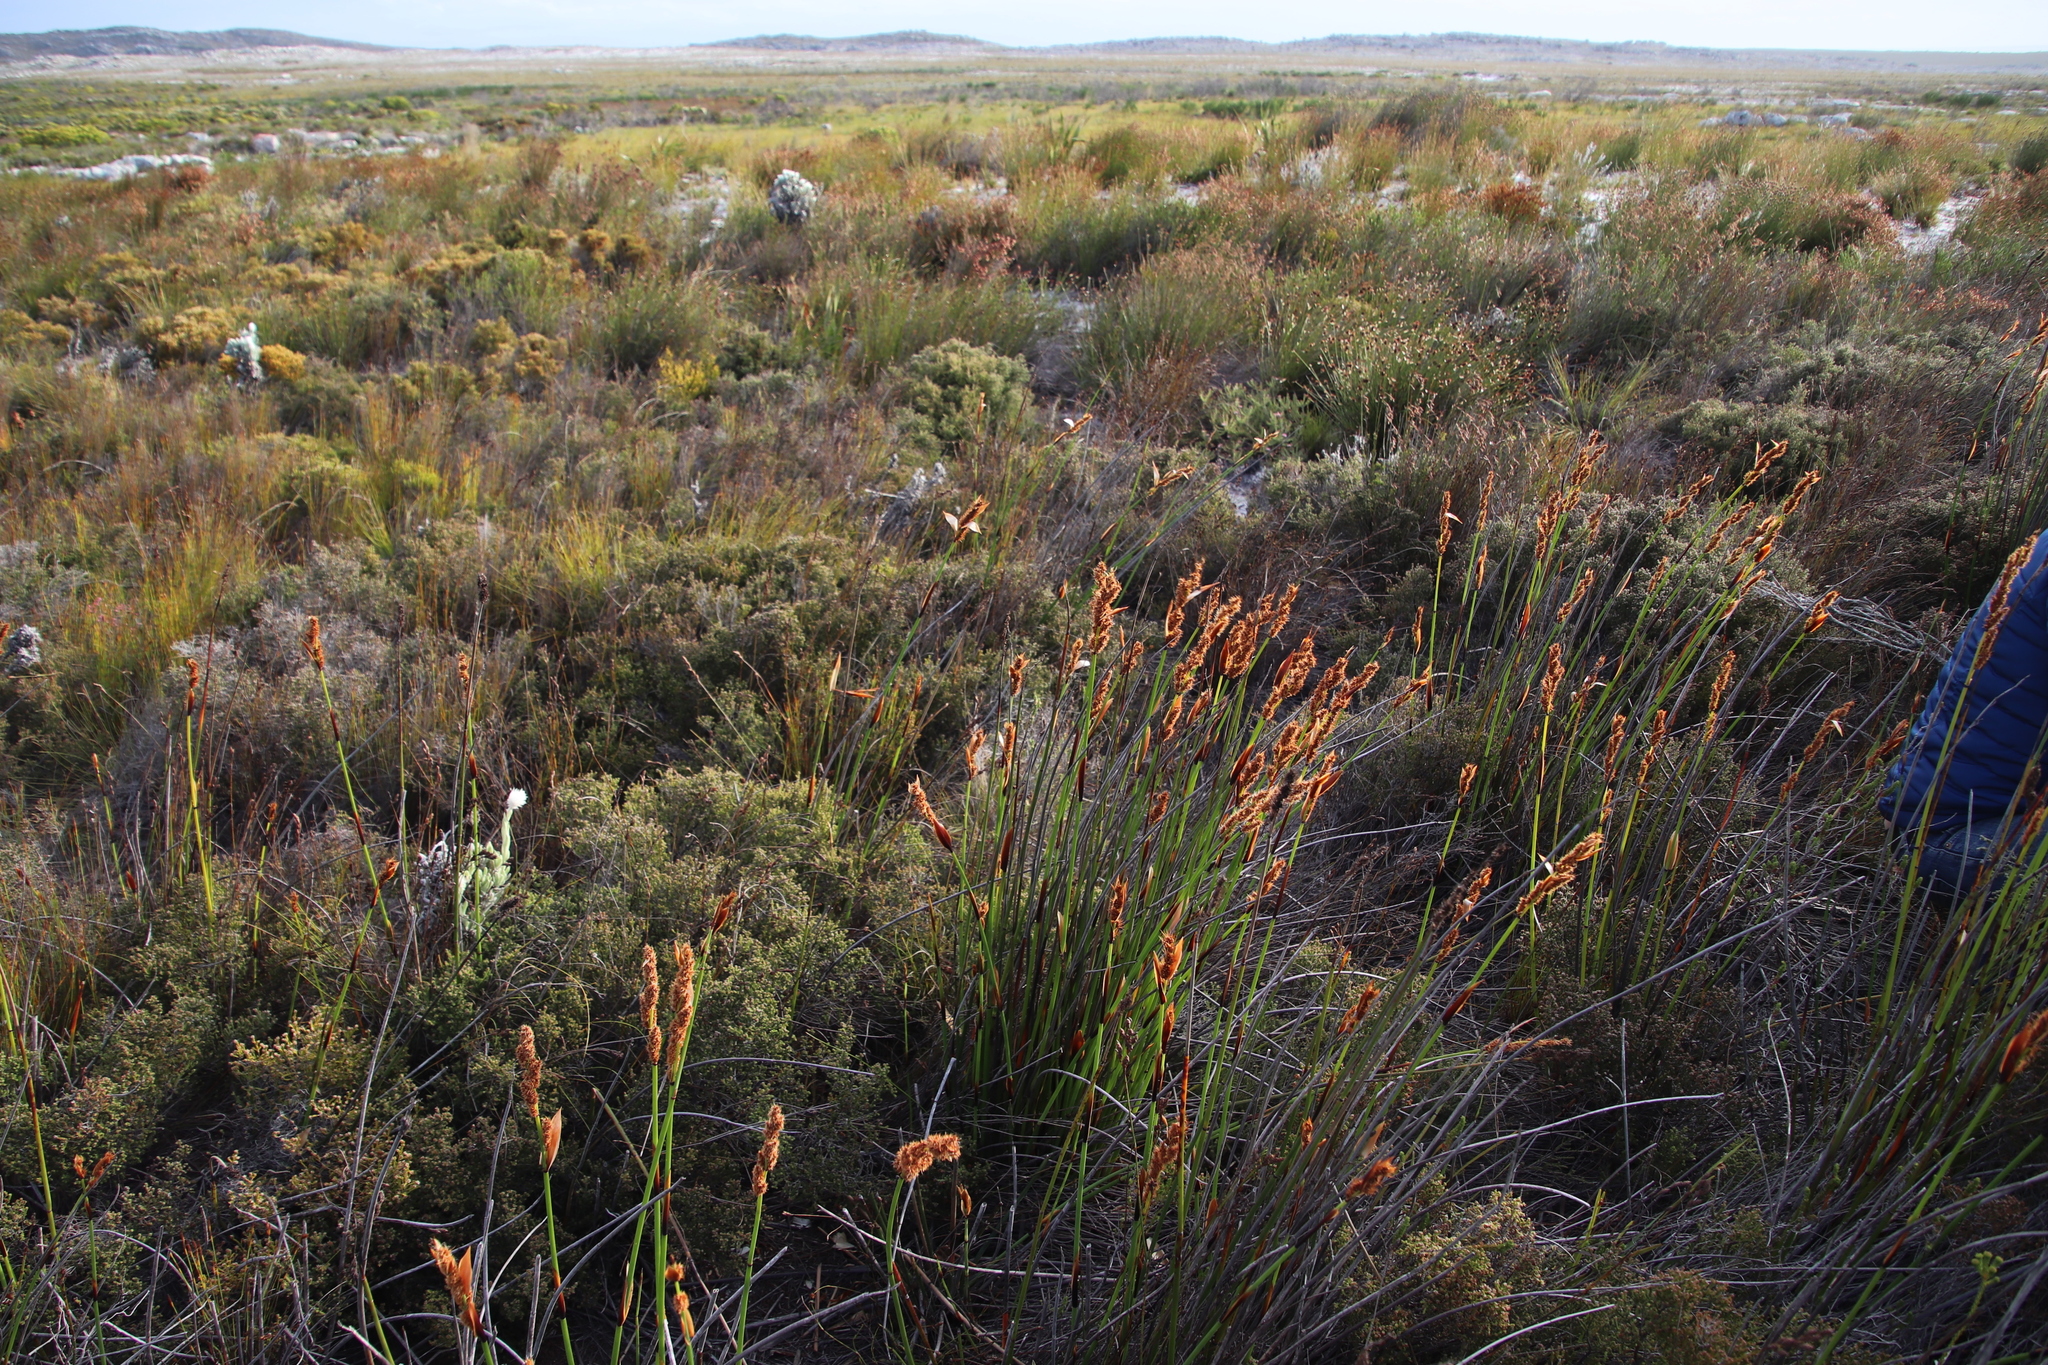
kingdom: Plantae
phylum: Tracheophyta
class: Liliopsida
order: Poales
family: Restionaceae
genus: Elegia
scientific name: Elegia cuspidata
